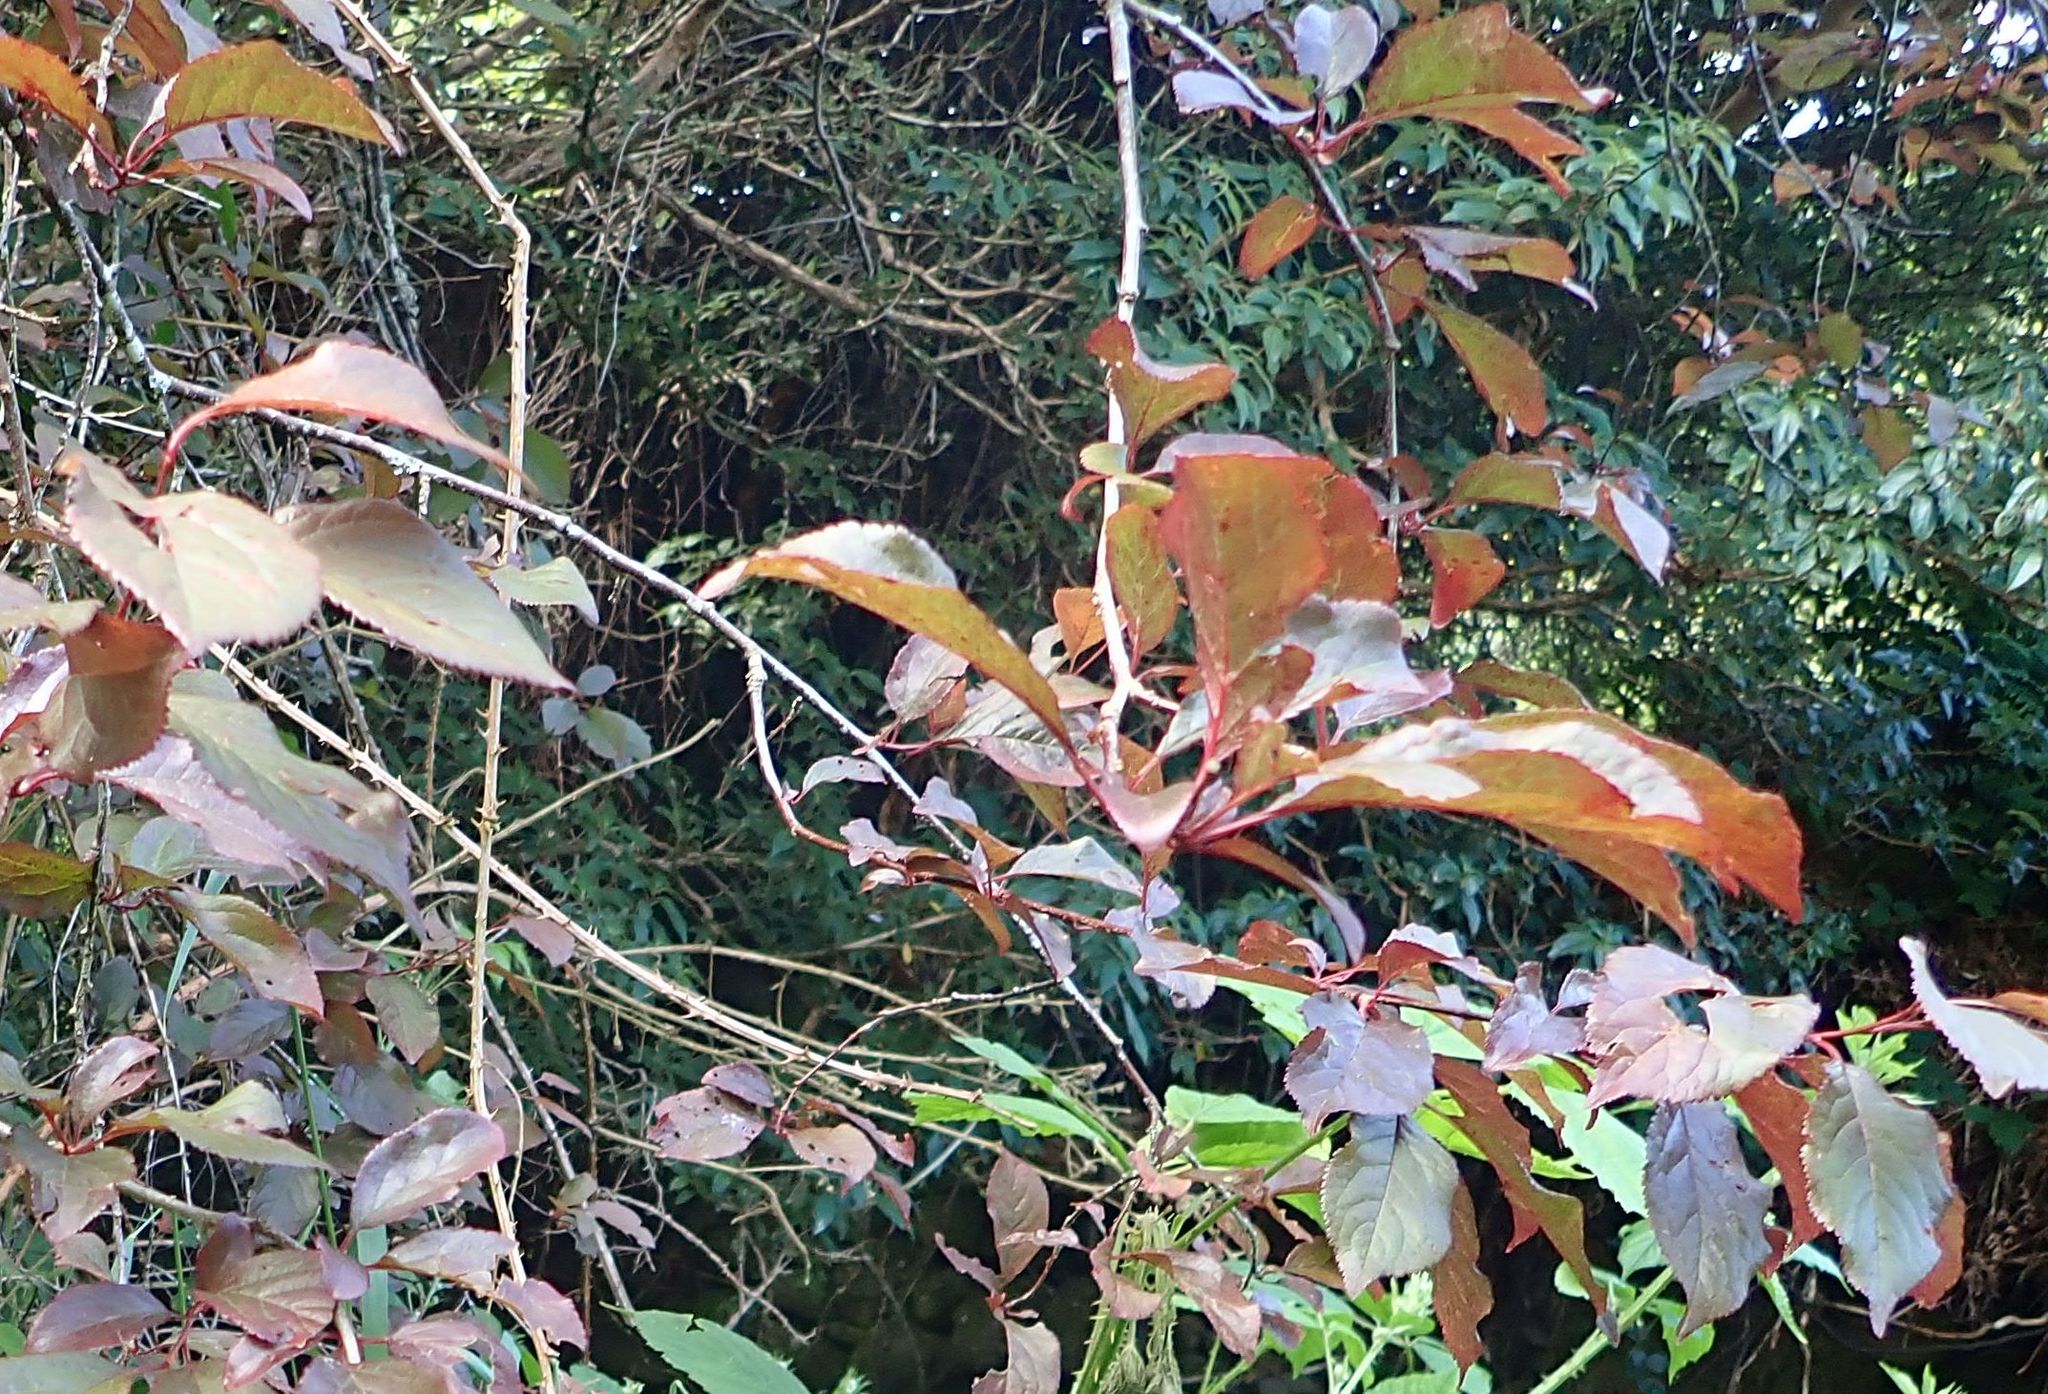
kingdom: Plantae
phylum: Tracheophyta
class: Magnoliopsida
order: Rosales
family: Rosaceae
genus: Prunus
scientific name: Prunus avium
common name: Sweet cherry
